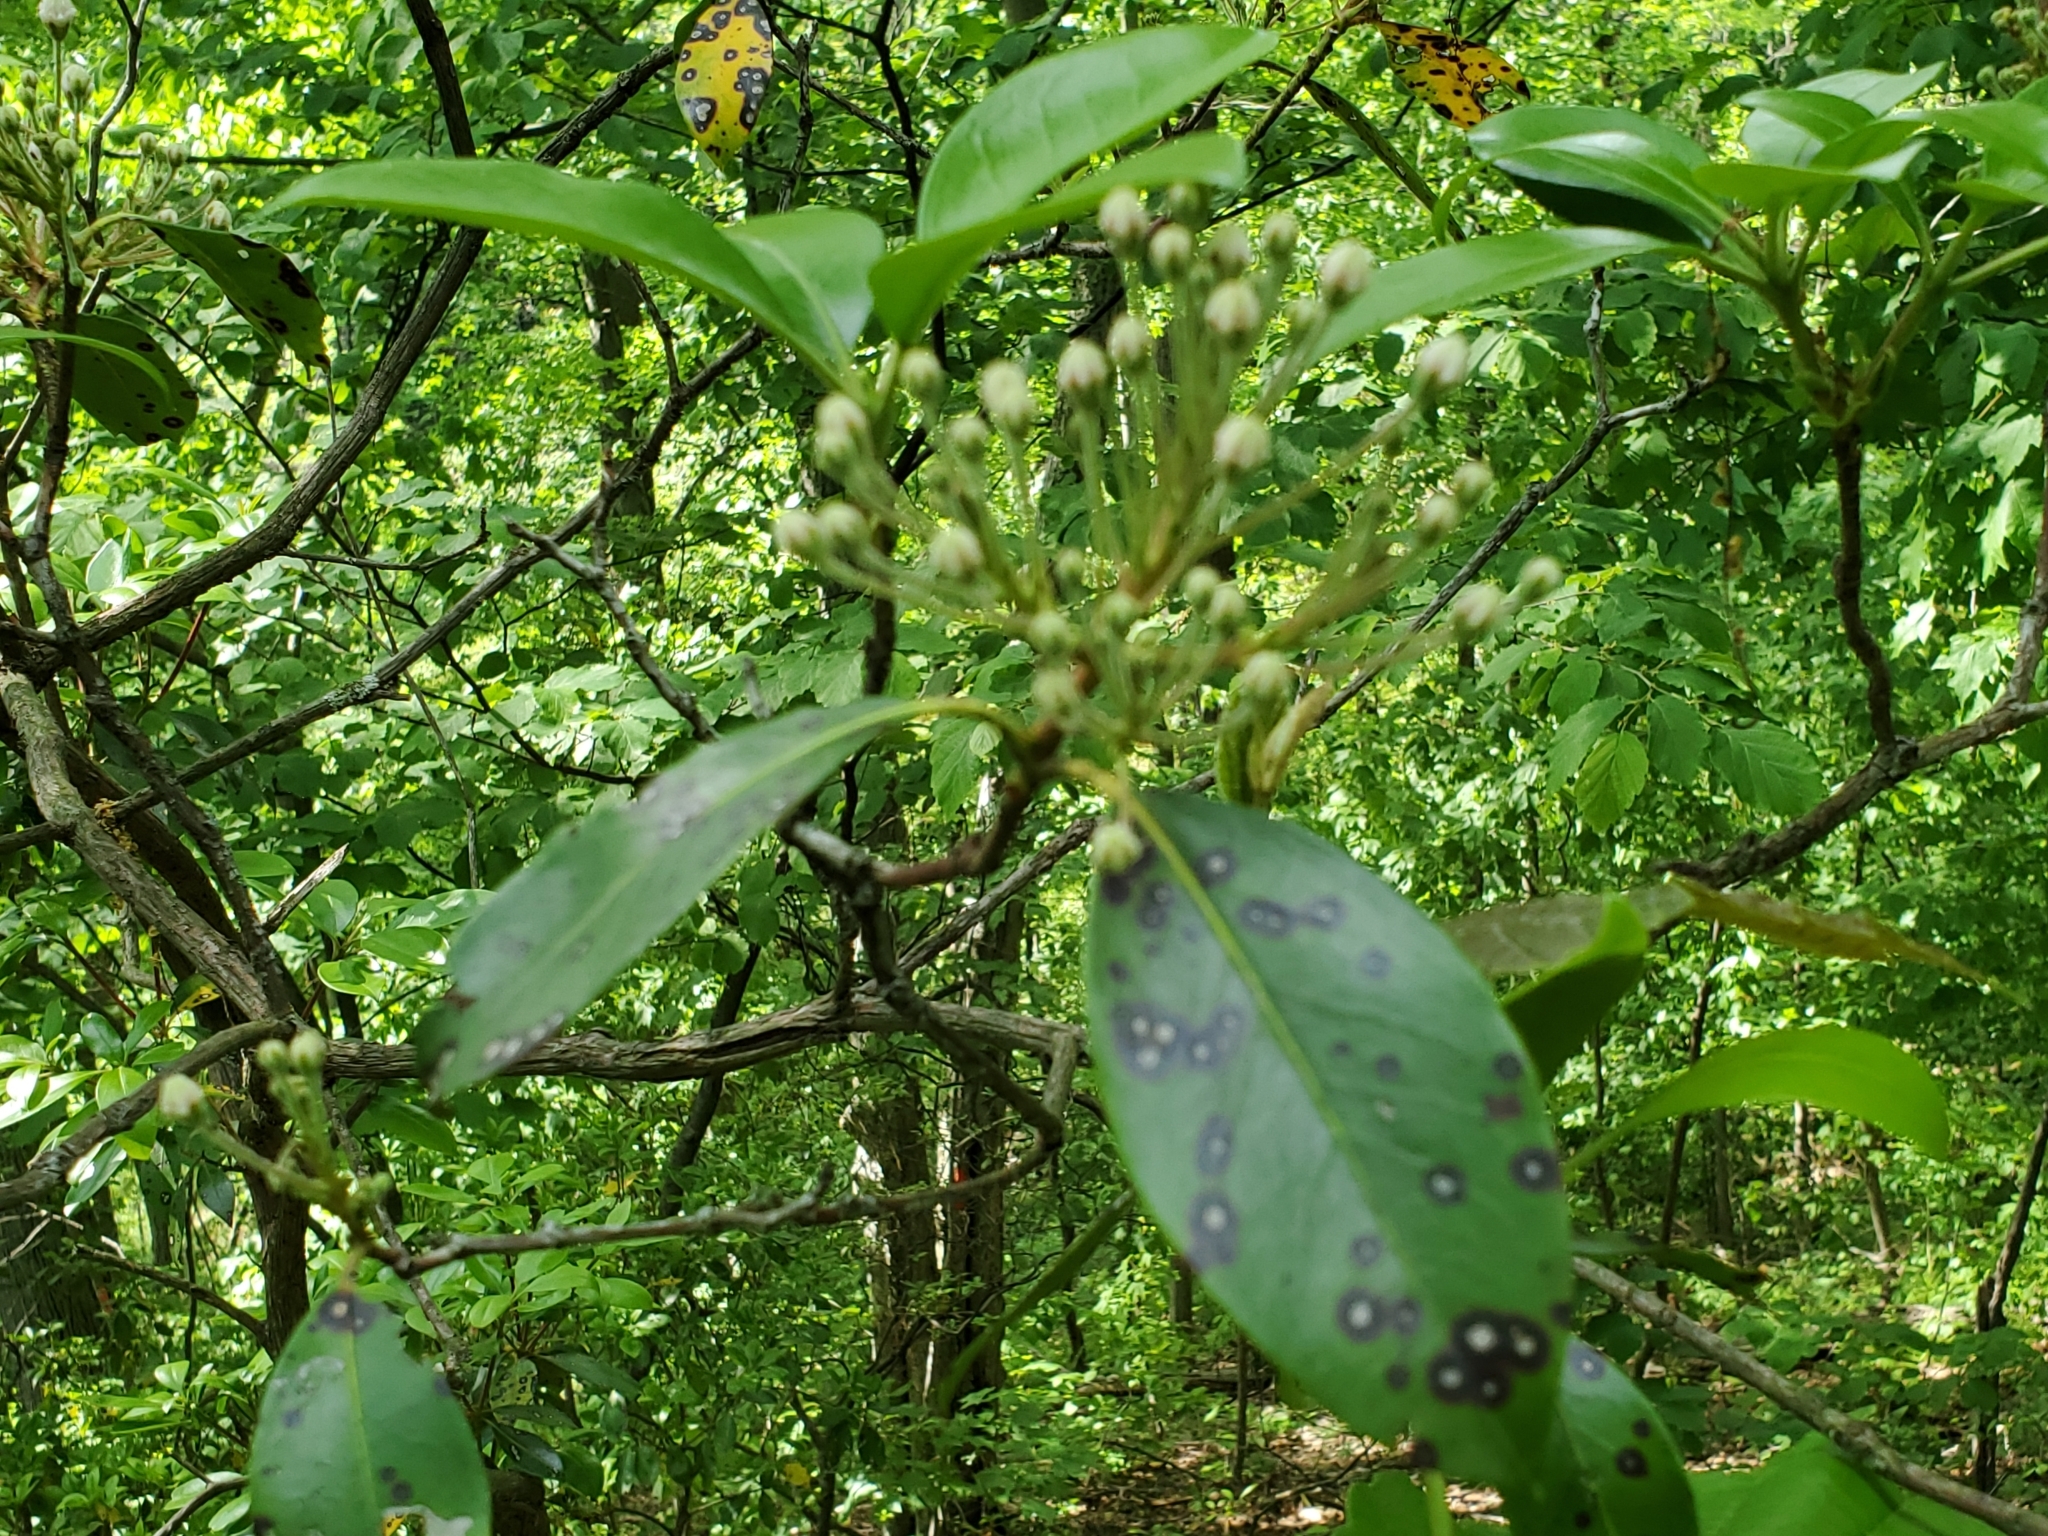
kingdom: Plantae
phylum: Tracheophyta
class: Magnoliopsida
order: Ericales
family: Ericaceae
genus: Kalmia
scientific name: Kalmia latifolia
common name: Mountain-laurel
